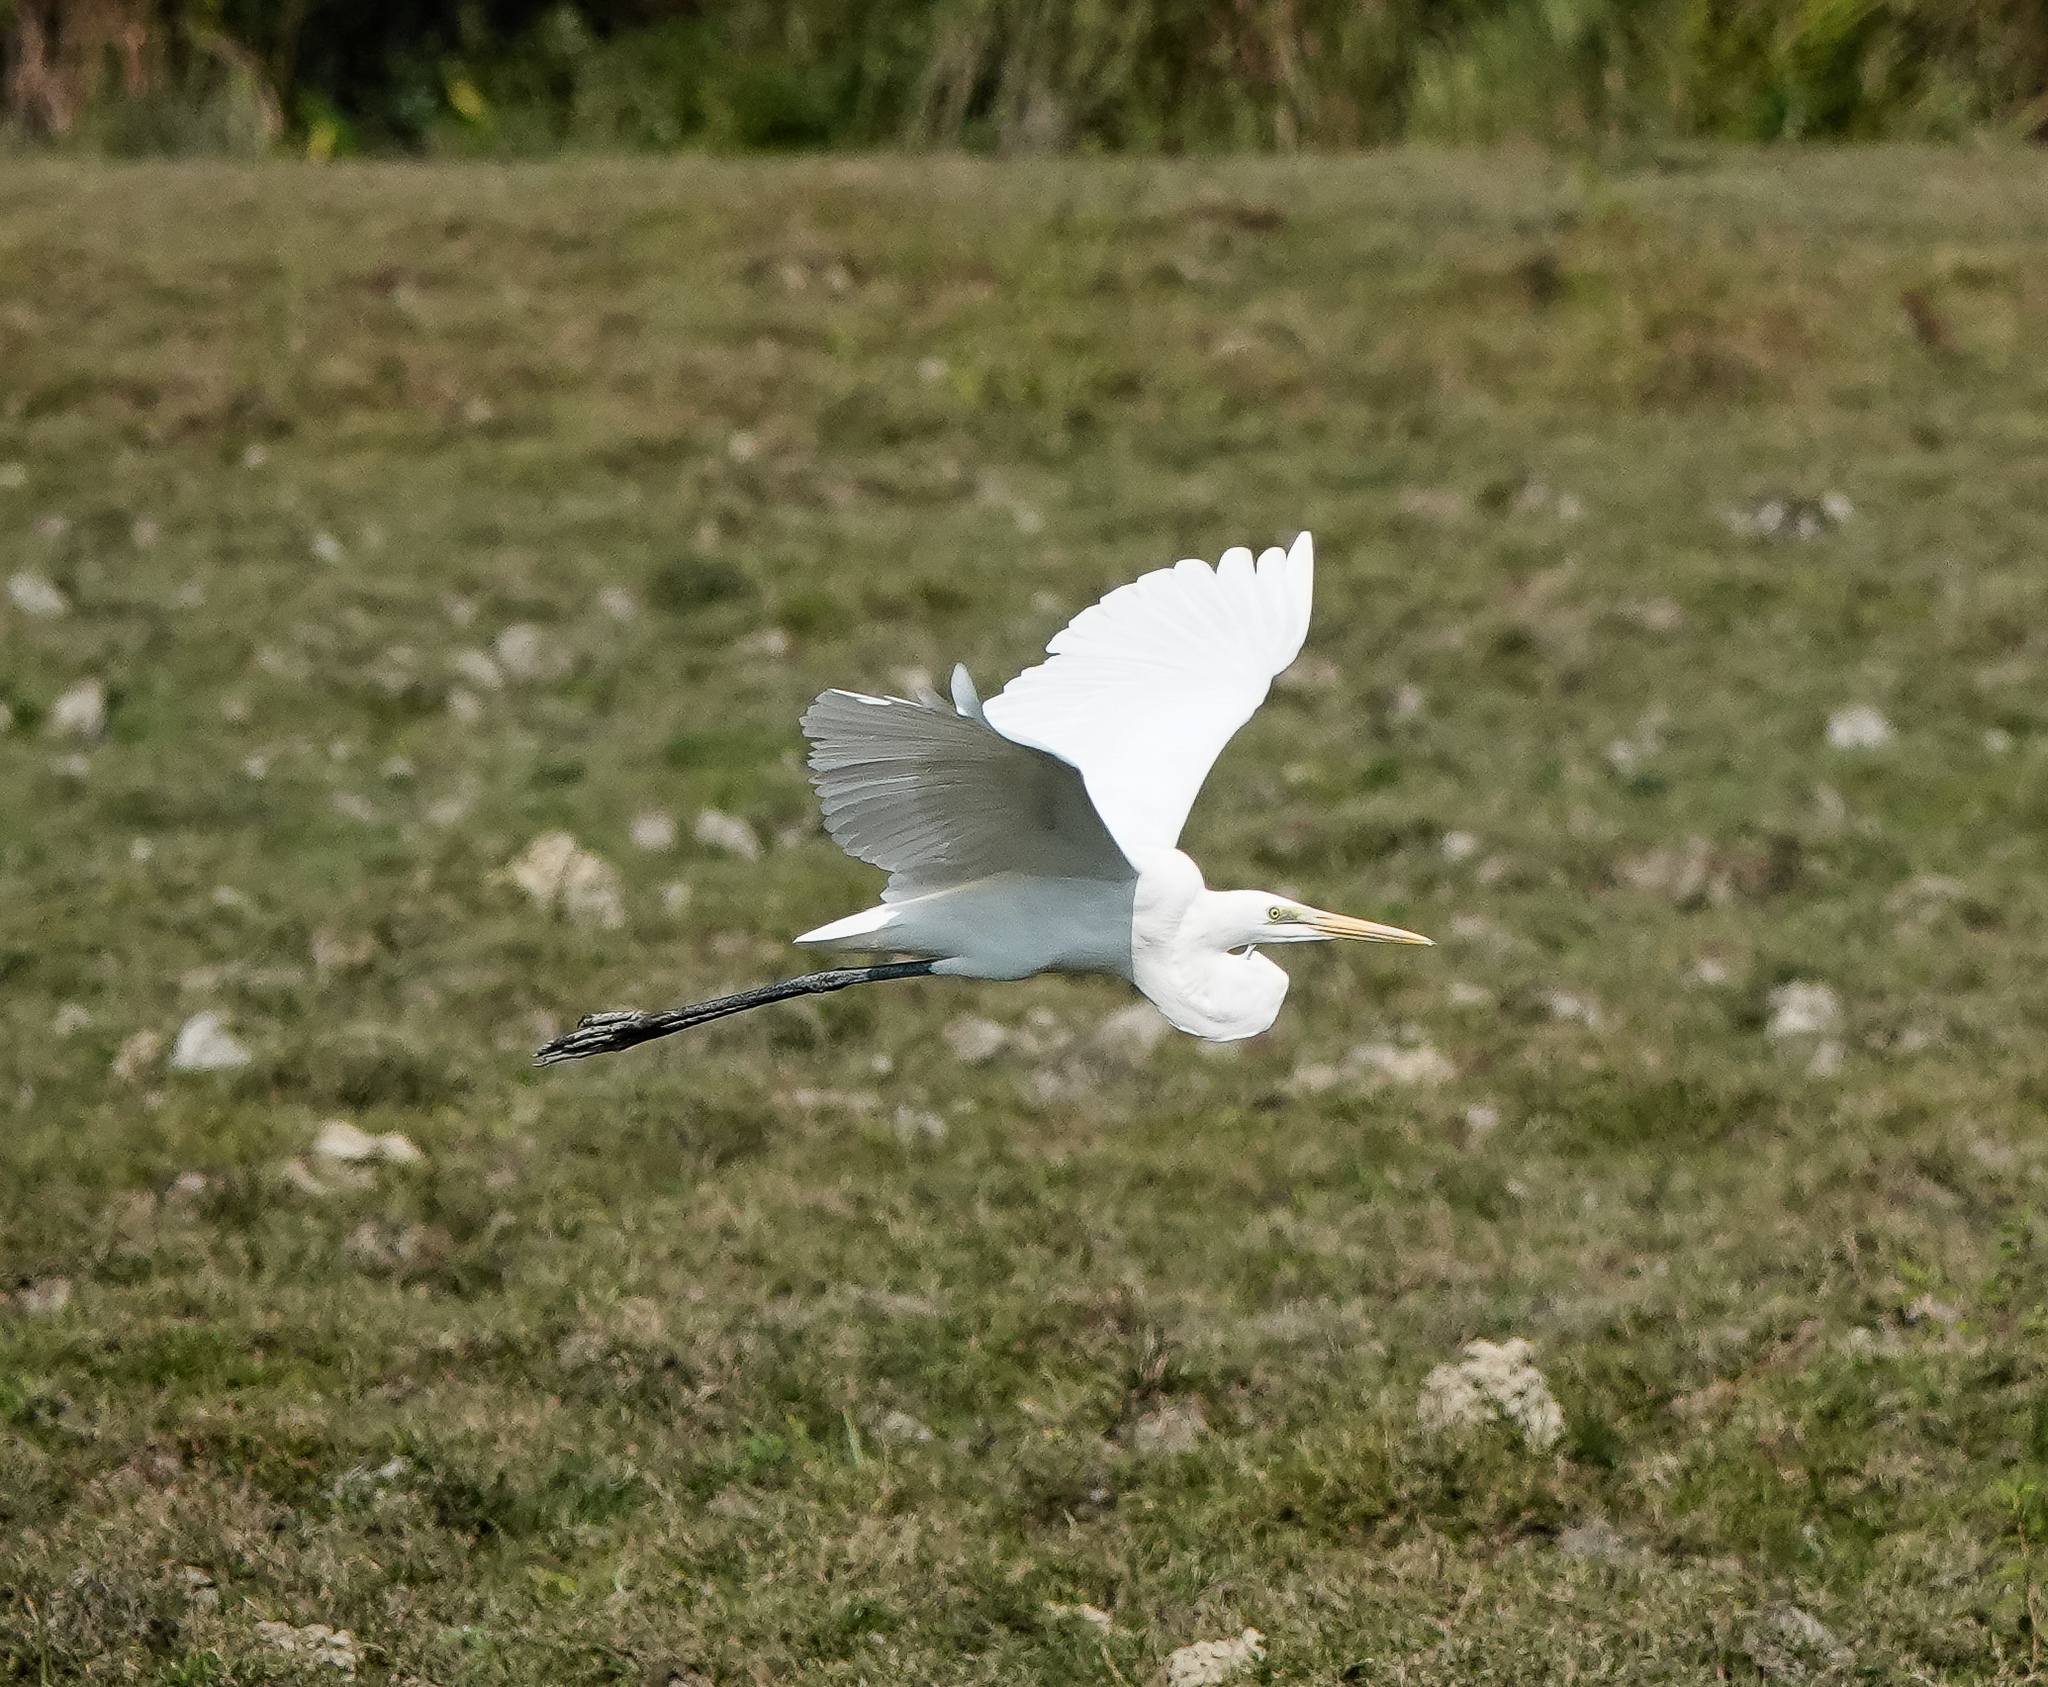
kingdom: Animalia
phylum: Chordata
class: Aves
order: Pelecaniformes
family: Ardeidae
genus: Egretta
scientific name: Egretta intermedia
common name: Intermediate egret
